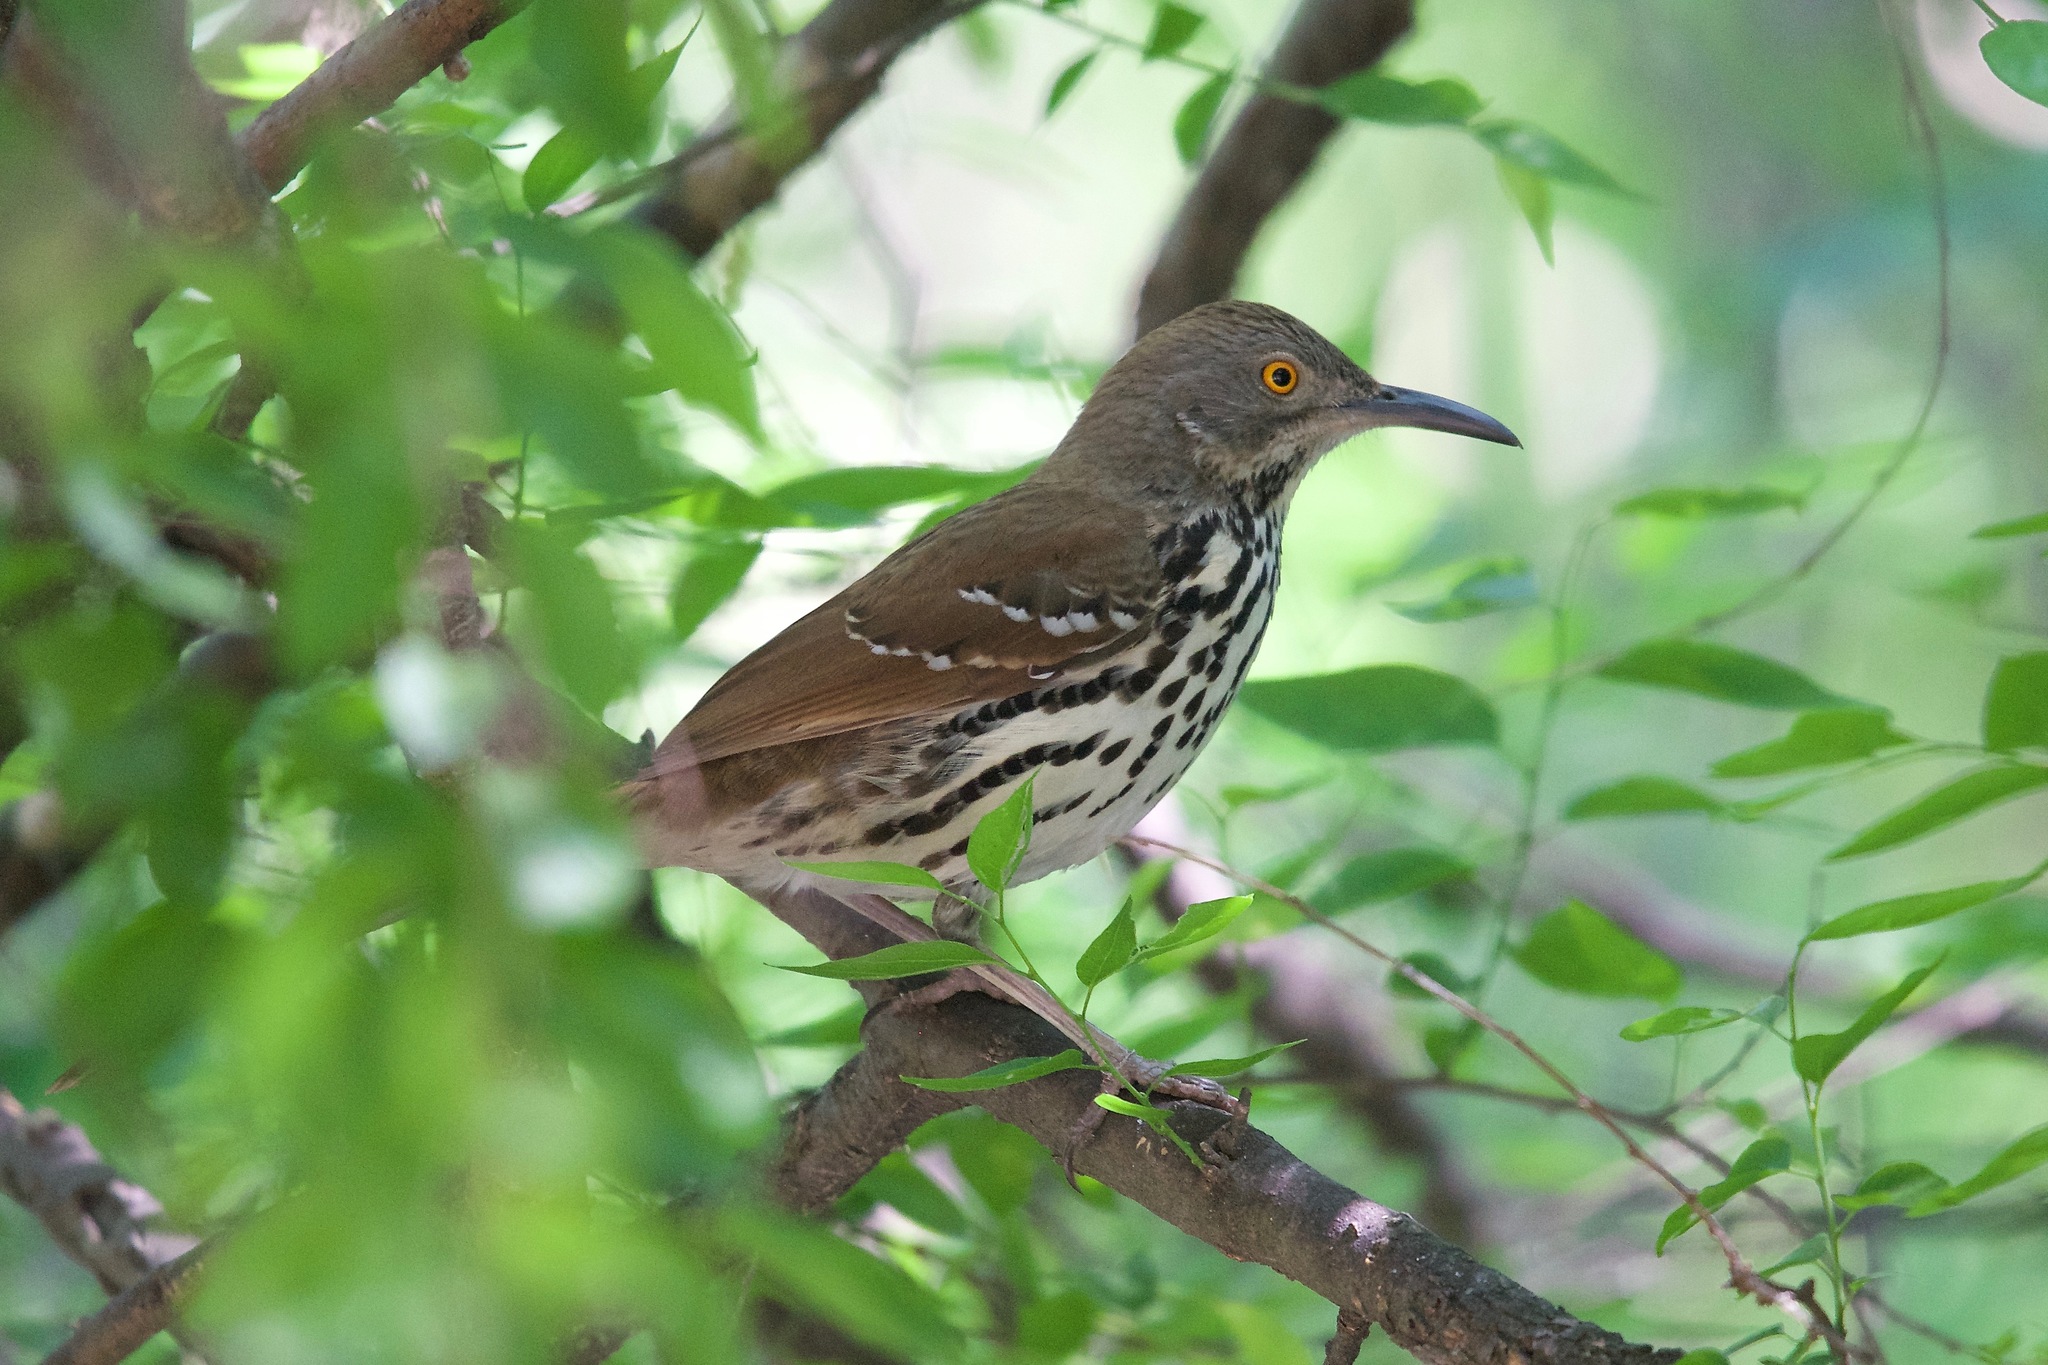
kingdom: Animalia
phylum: Chordata
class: Aves
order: Passeriformes
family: Mimidae
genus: Toxostoma
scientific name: Toxostoma longirostre
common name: Long-billed thrasher
